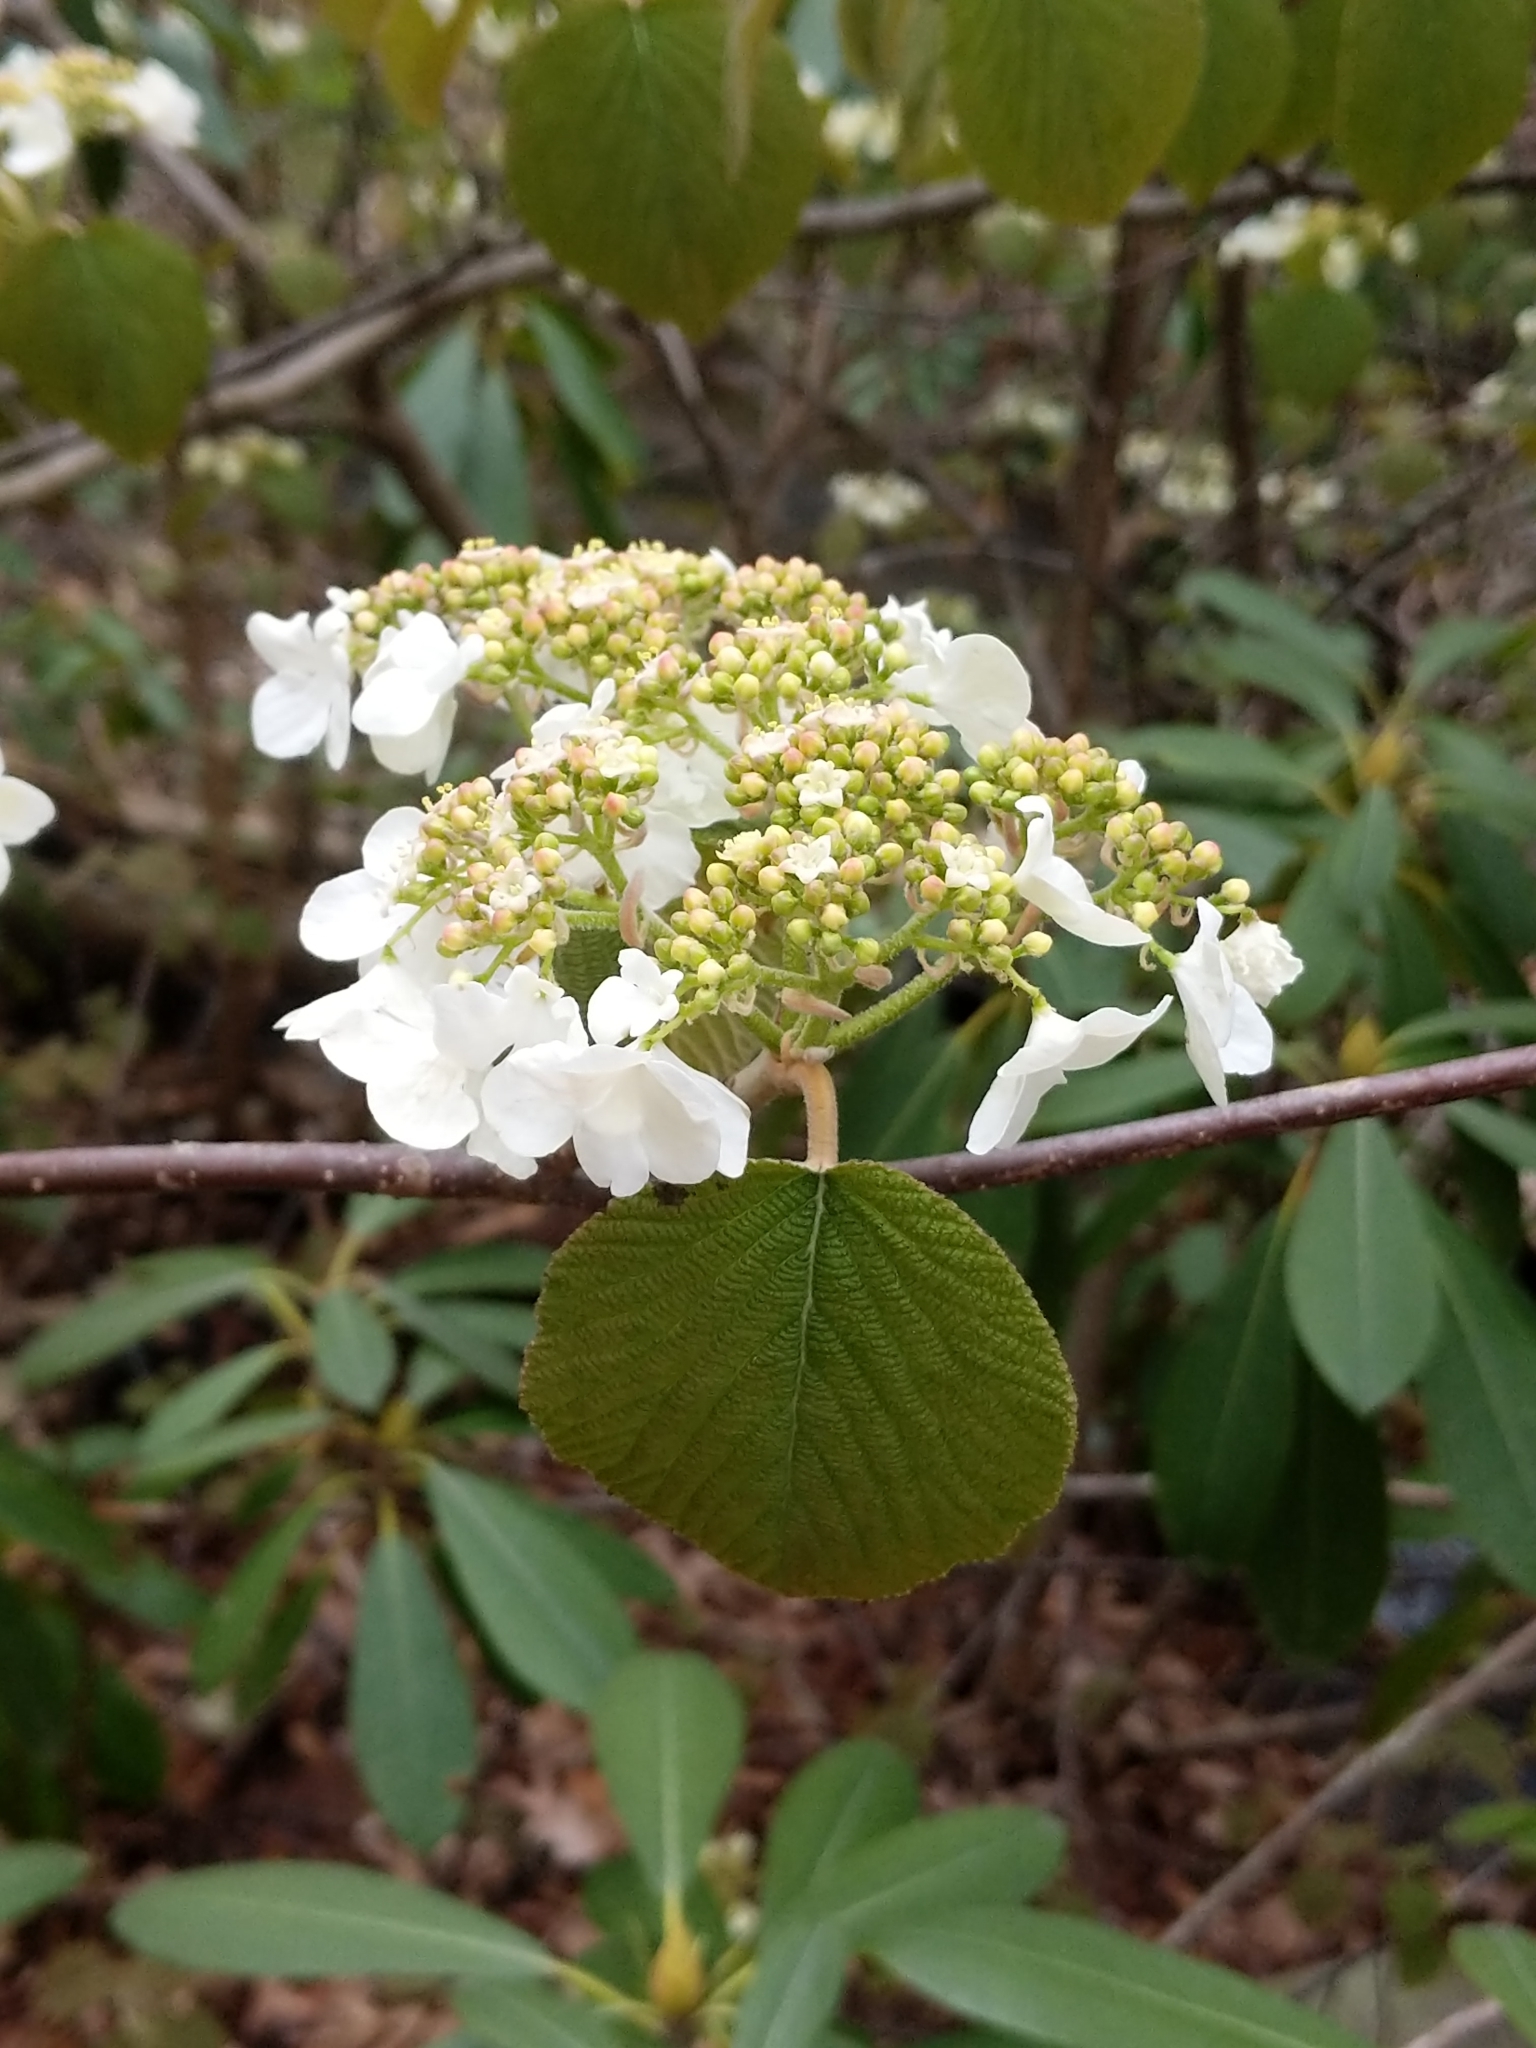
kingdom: Plantae
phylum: Tracheophyta
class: Magnoliopsida
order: Dipsacales
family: Viburnaceae
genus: Viburnum
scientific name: Viburnum lantanoides
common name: Hobblebush
